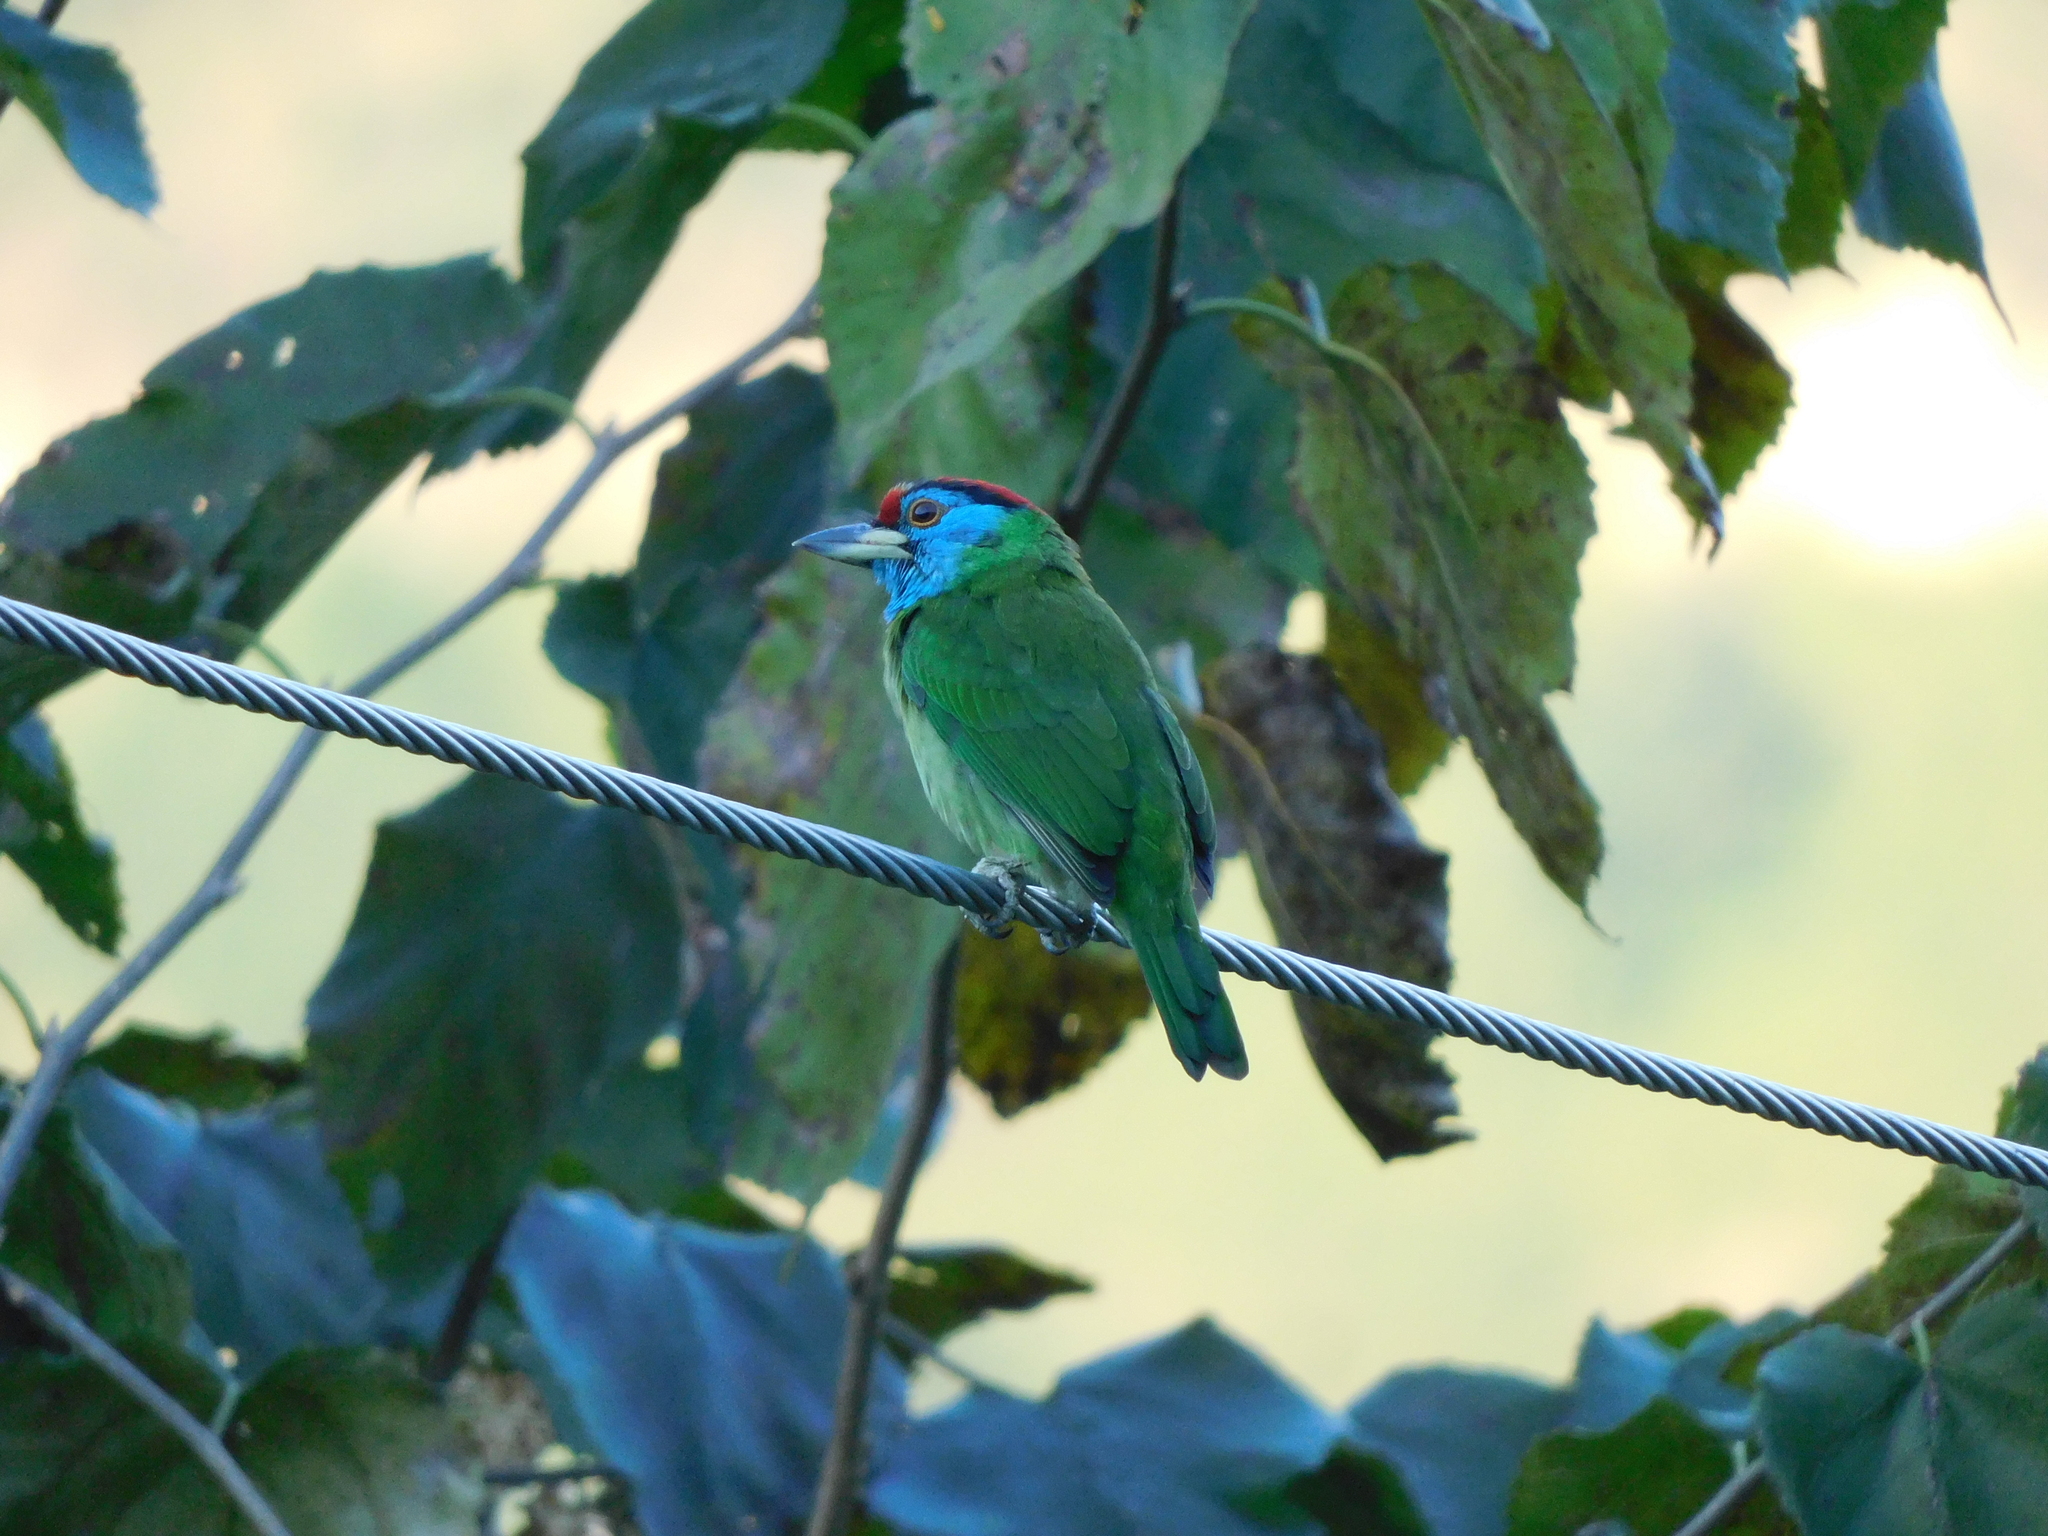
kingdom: Animalia
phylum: Chordata
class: Aves
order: Piciformes
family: Megalaimidae
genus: Psilopogon
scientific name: Psilopogon asiaticus
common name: Blue-throated barbet
